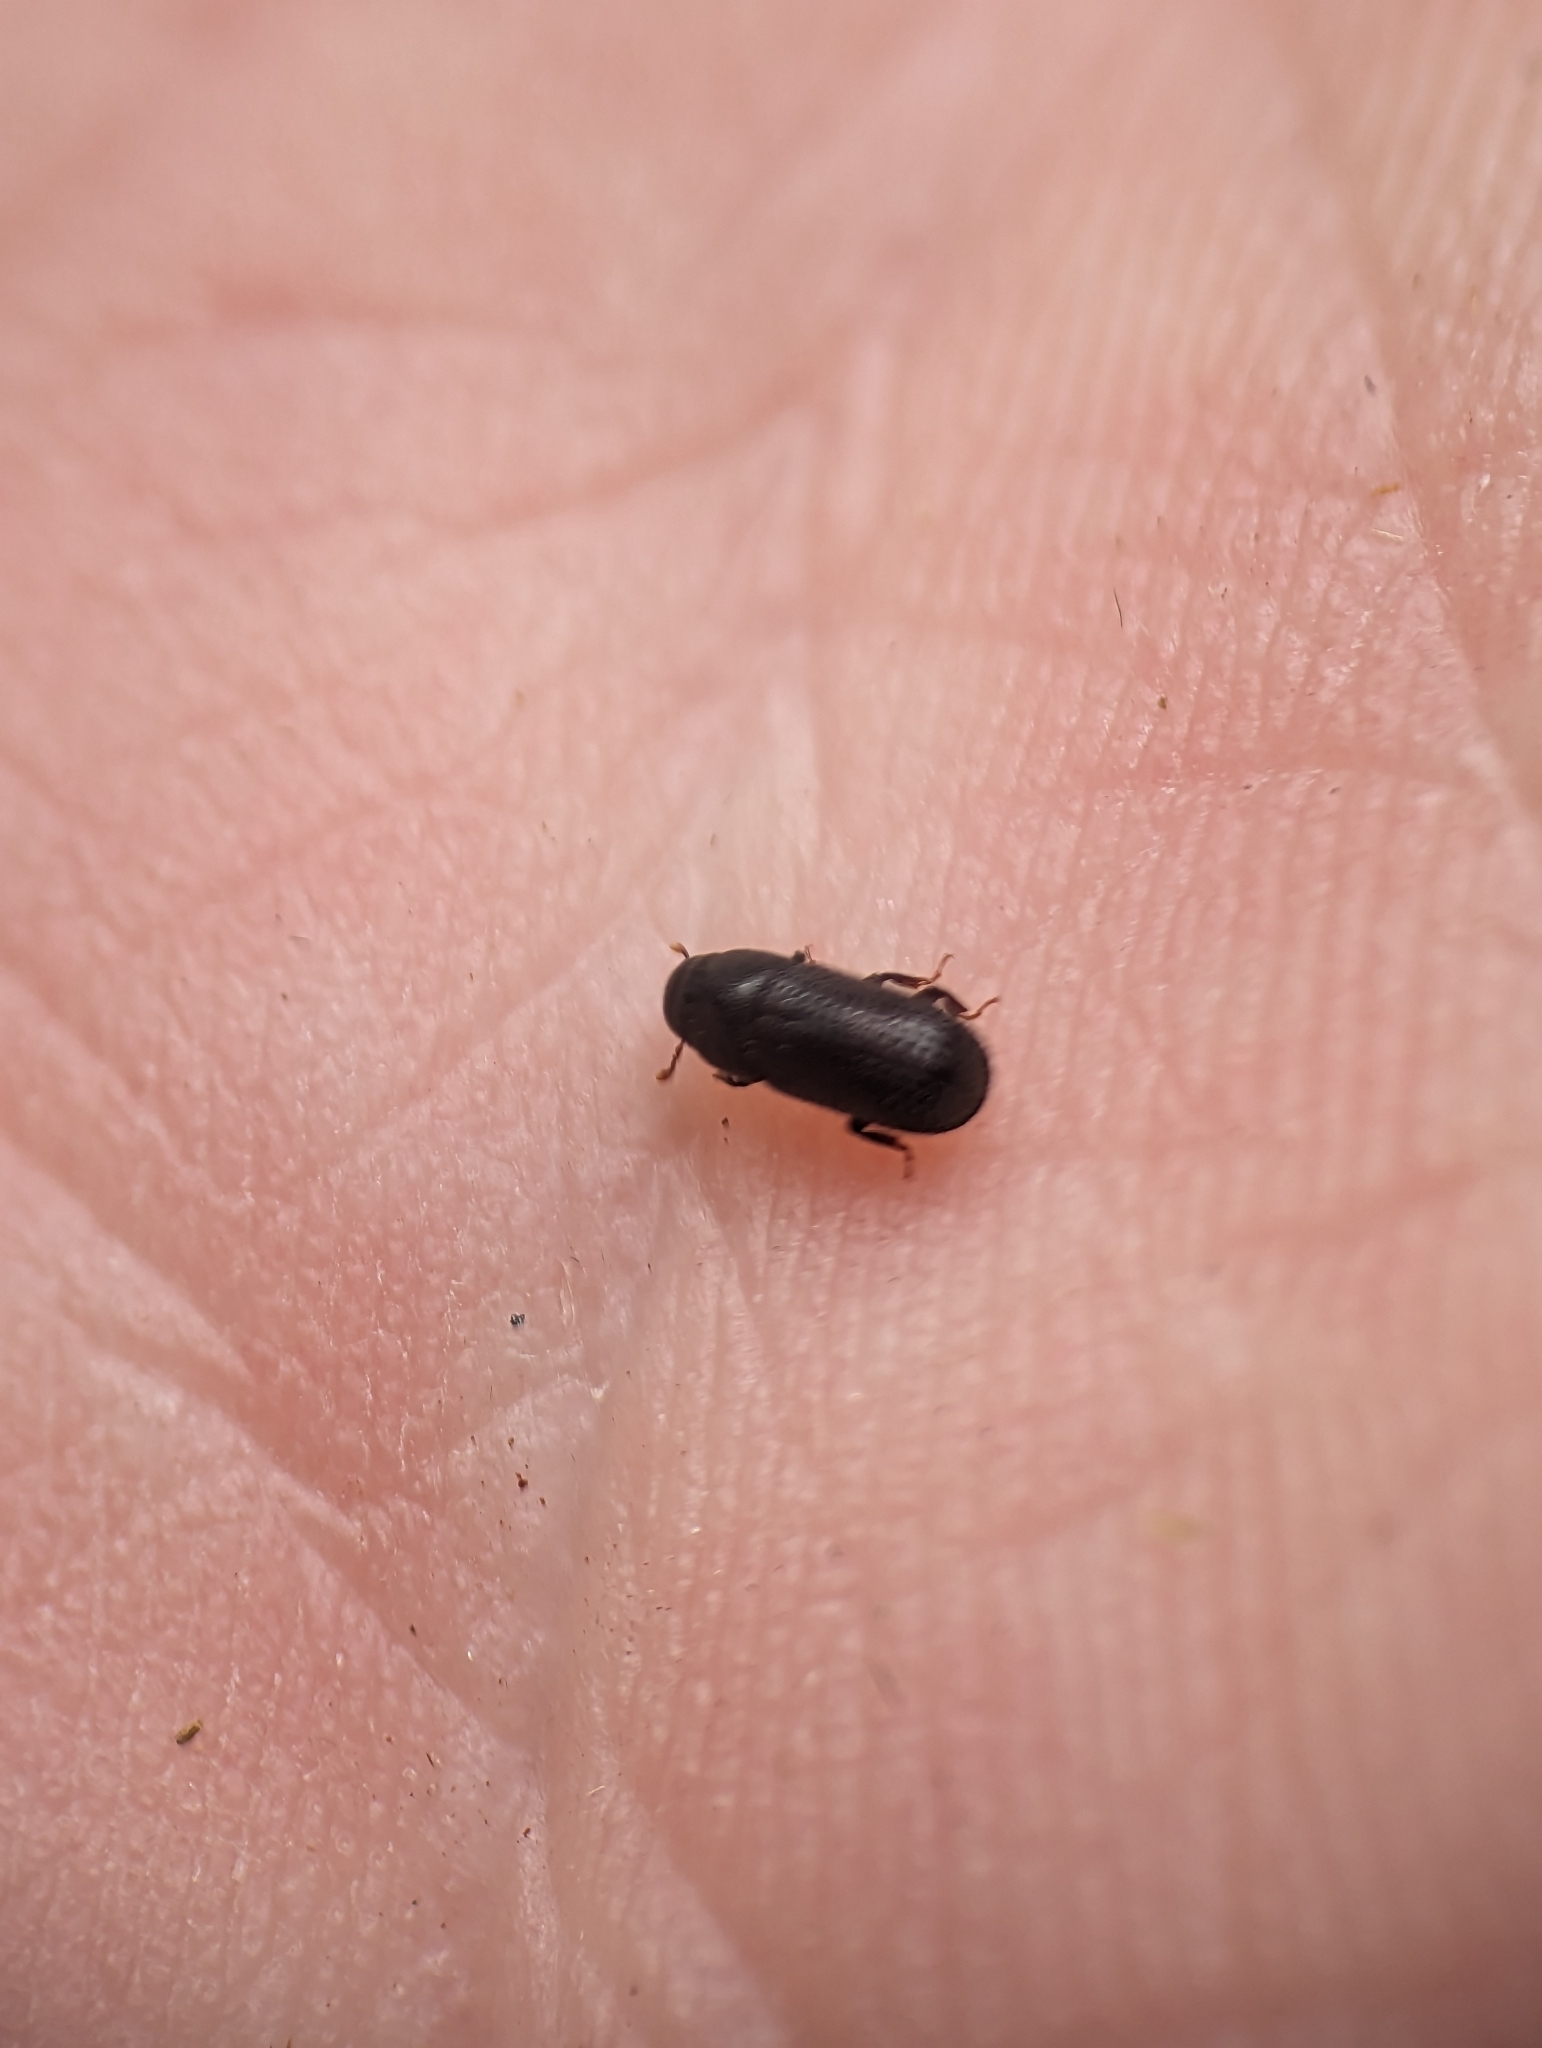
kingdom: Animalia
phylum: Arthropoda
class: Insecta
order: Coleoptera
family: Curculionidae
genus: Stenoscelis
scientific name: Stenoscelis hylastoides
